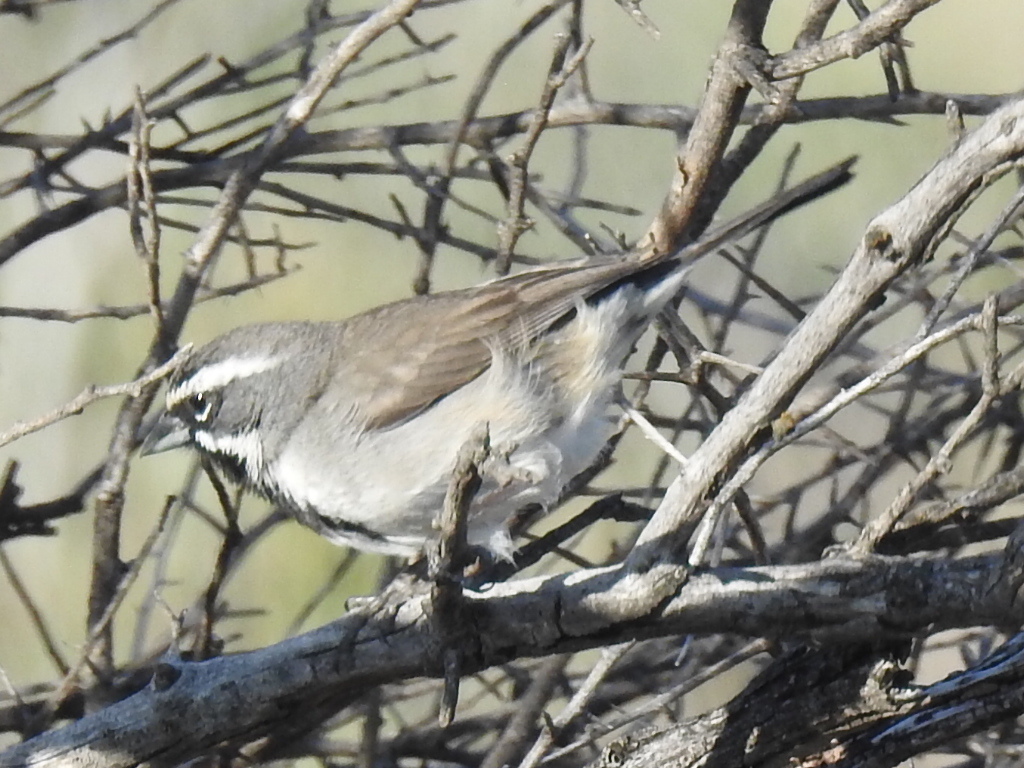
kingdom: Animalia
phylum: Chordata
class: Aves
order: Passeriformes
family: Passerellidae
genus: Amphispiza
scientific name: Amphispiza bilineata
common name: Black-throated sparrow
